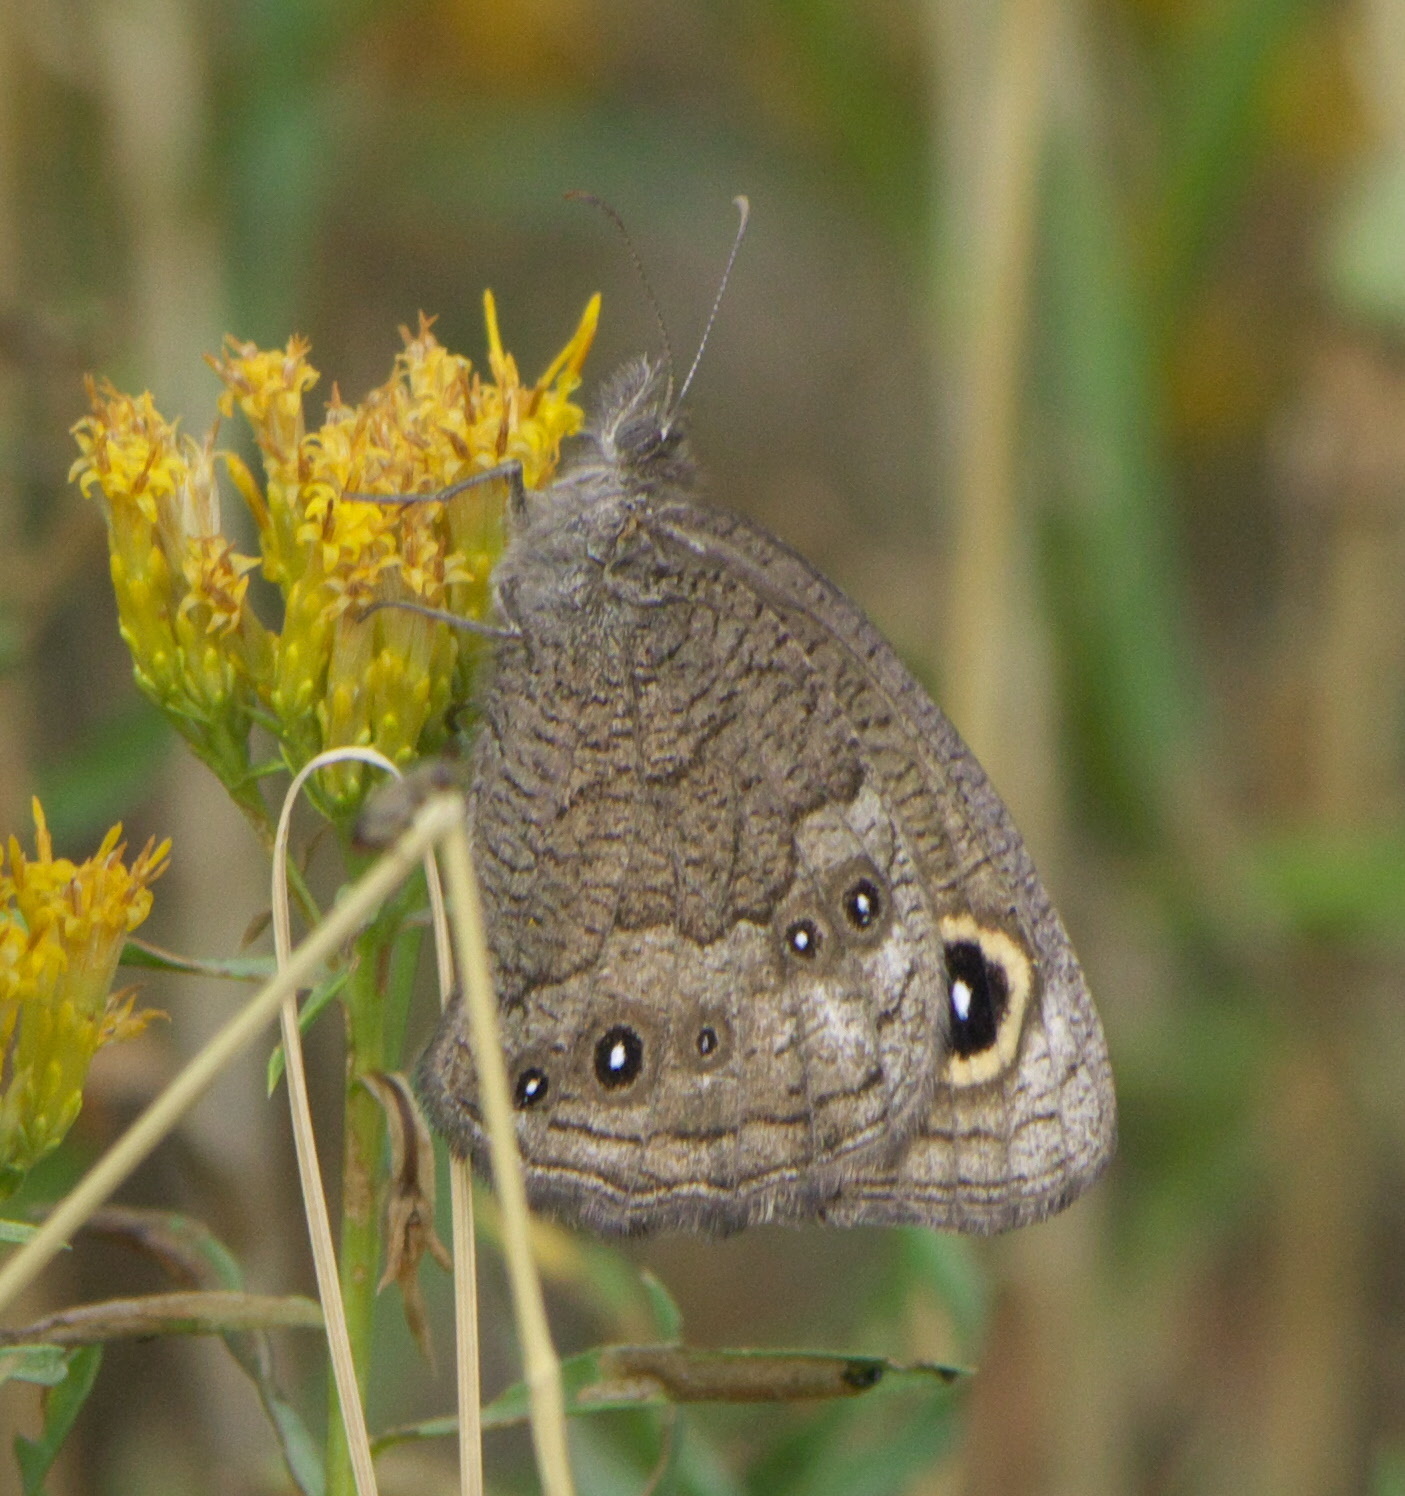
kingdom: Animalia
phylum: Arthropoda
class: Insecta
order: Lepidoptera
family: Nymphalidae
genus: Cercyonis
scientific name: Cercyonis sthenele
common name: Great basin wood-nymph
